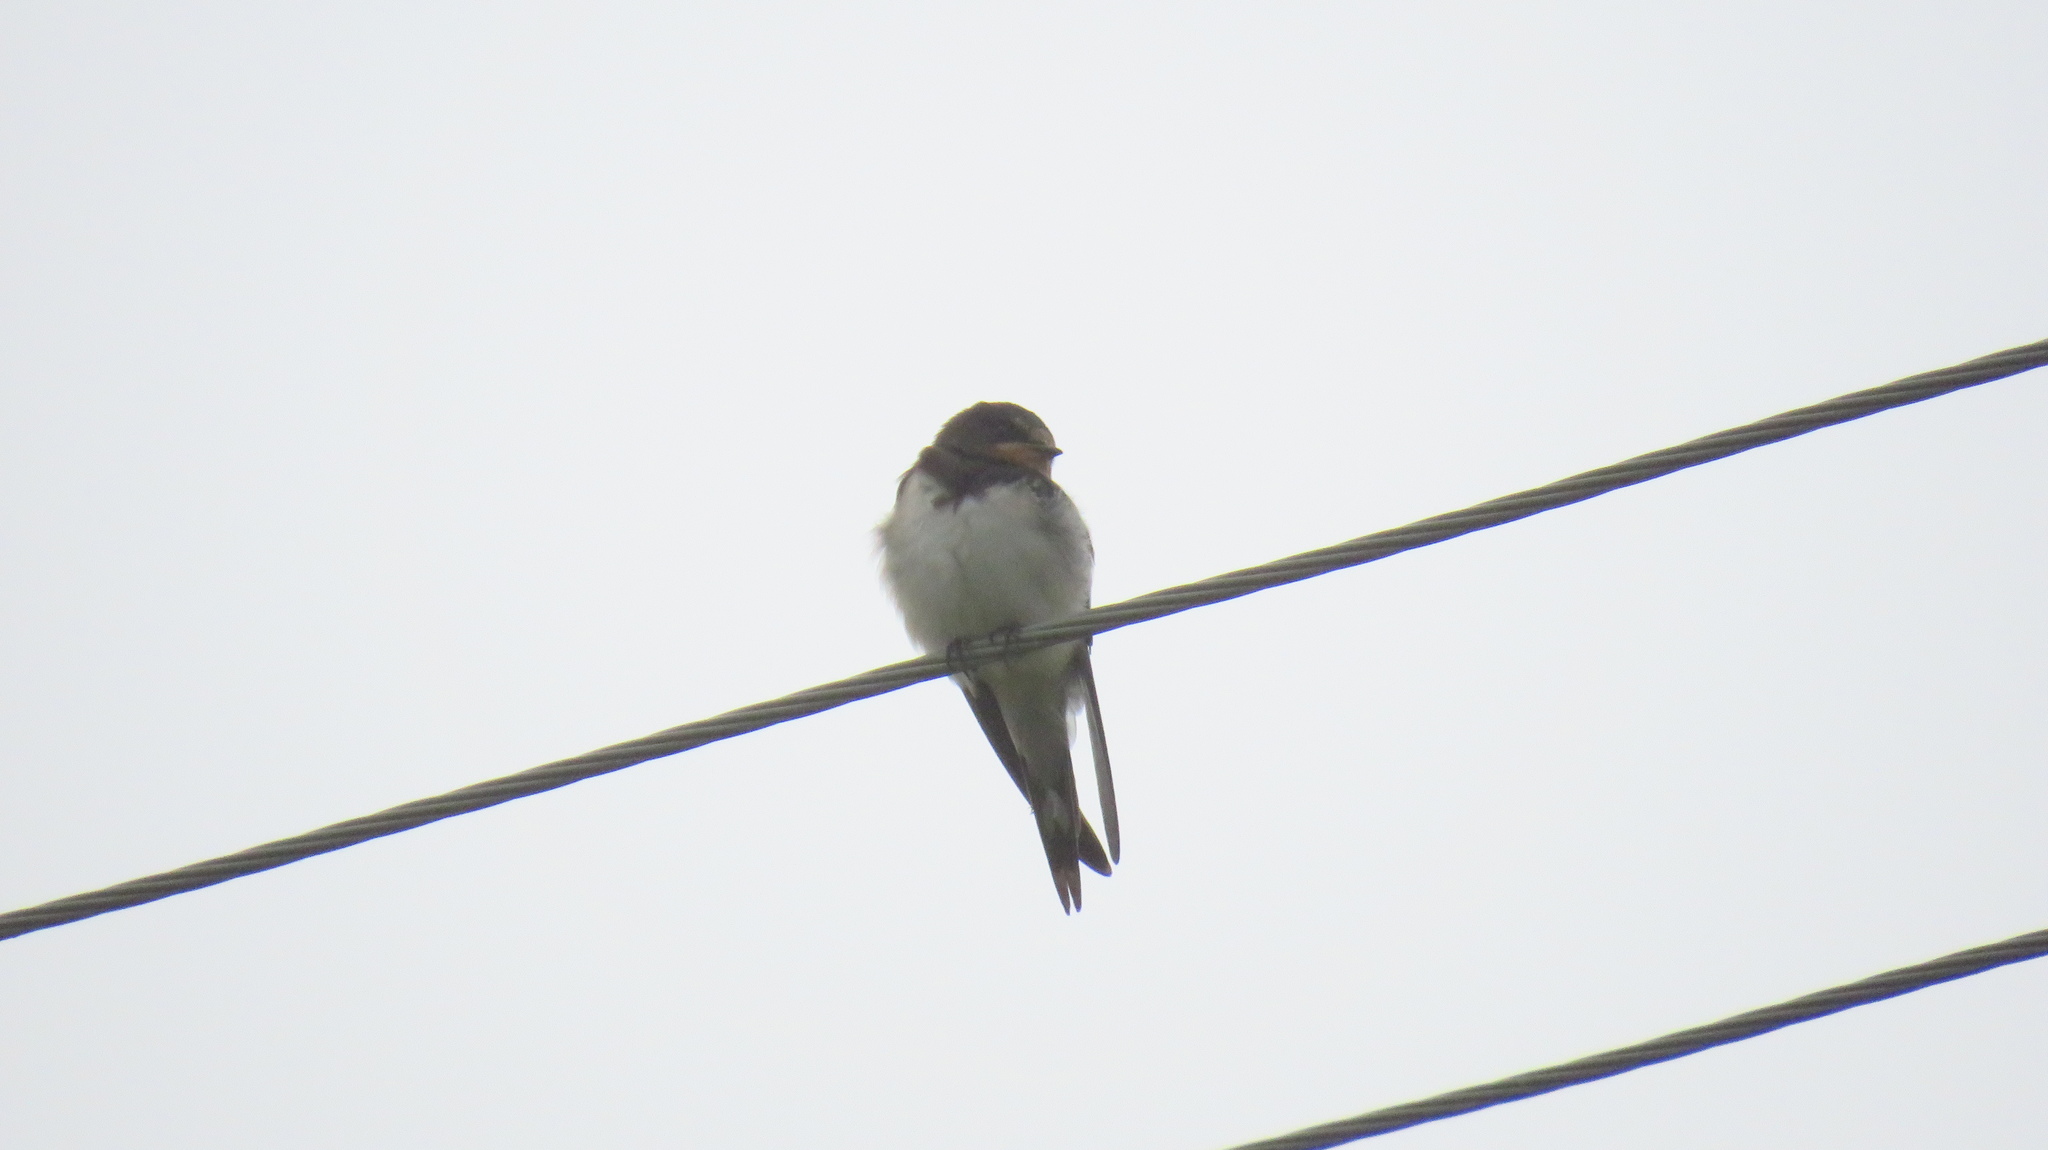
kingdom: Animalia
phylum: Chordata
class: Aves
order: Passeriformes
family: Hirundinidae
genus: Hirundo
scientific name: Hirundo rustica
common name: Barn swallow
